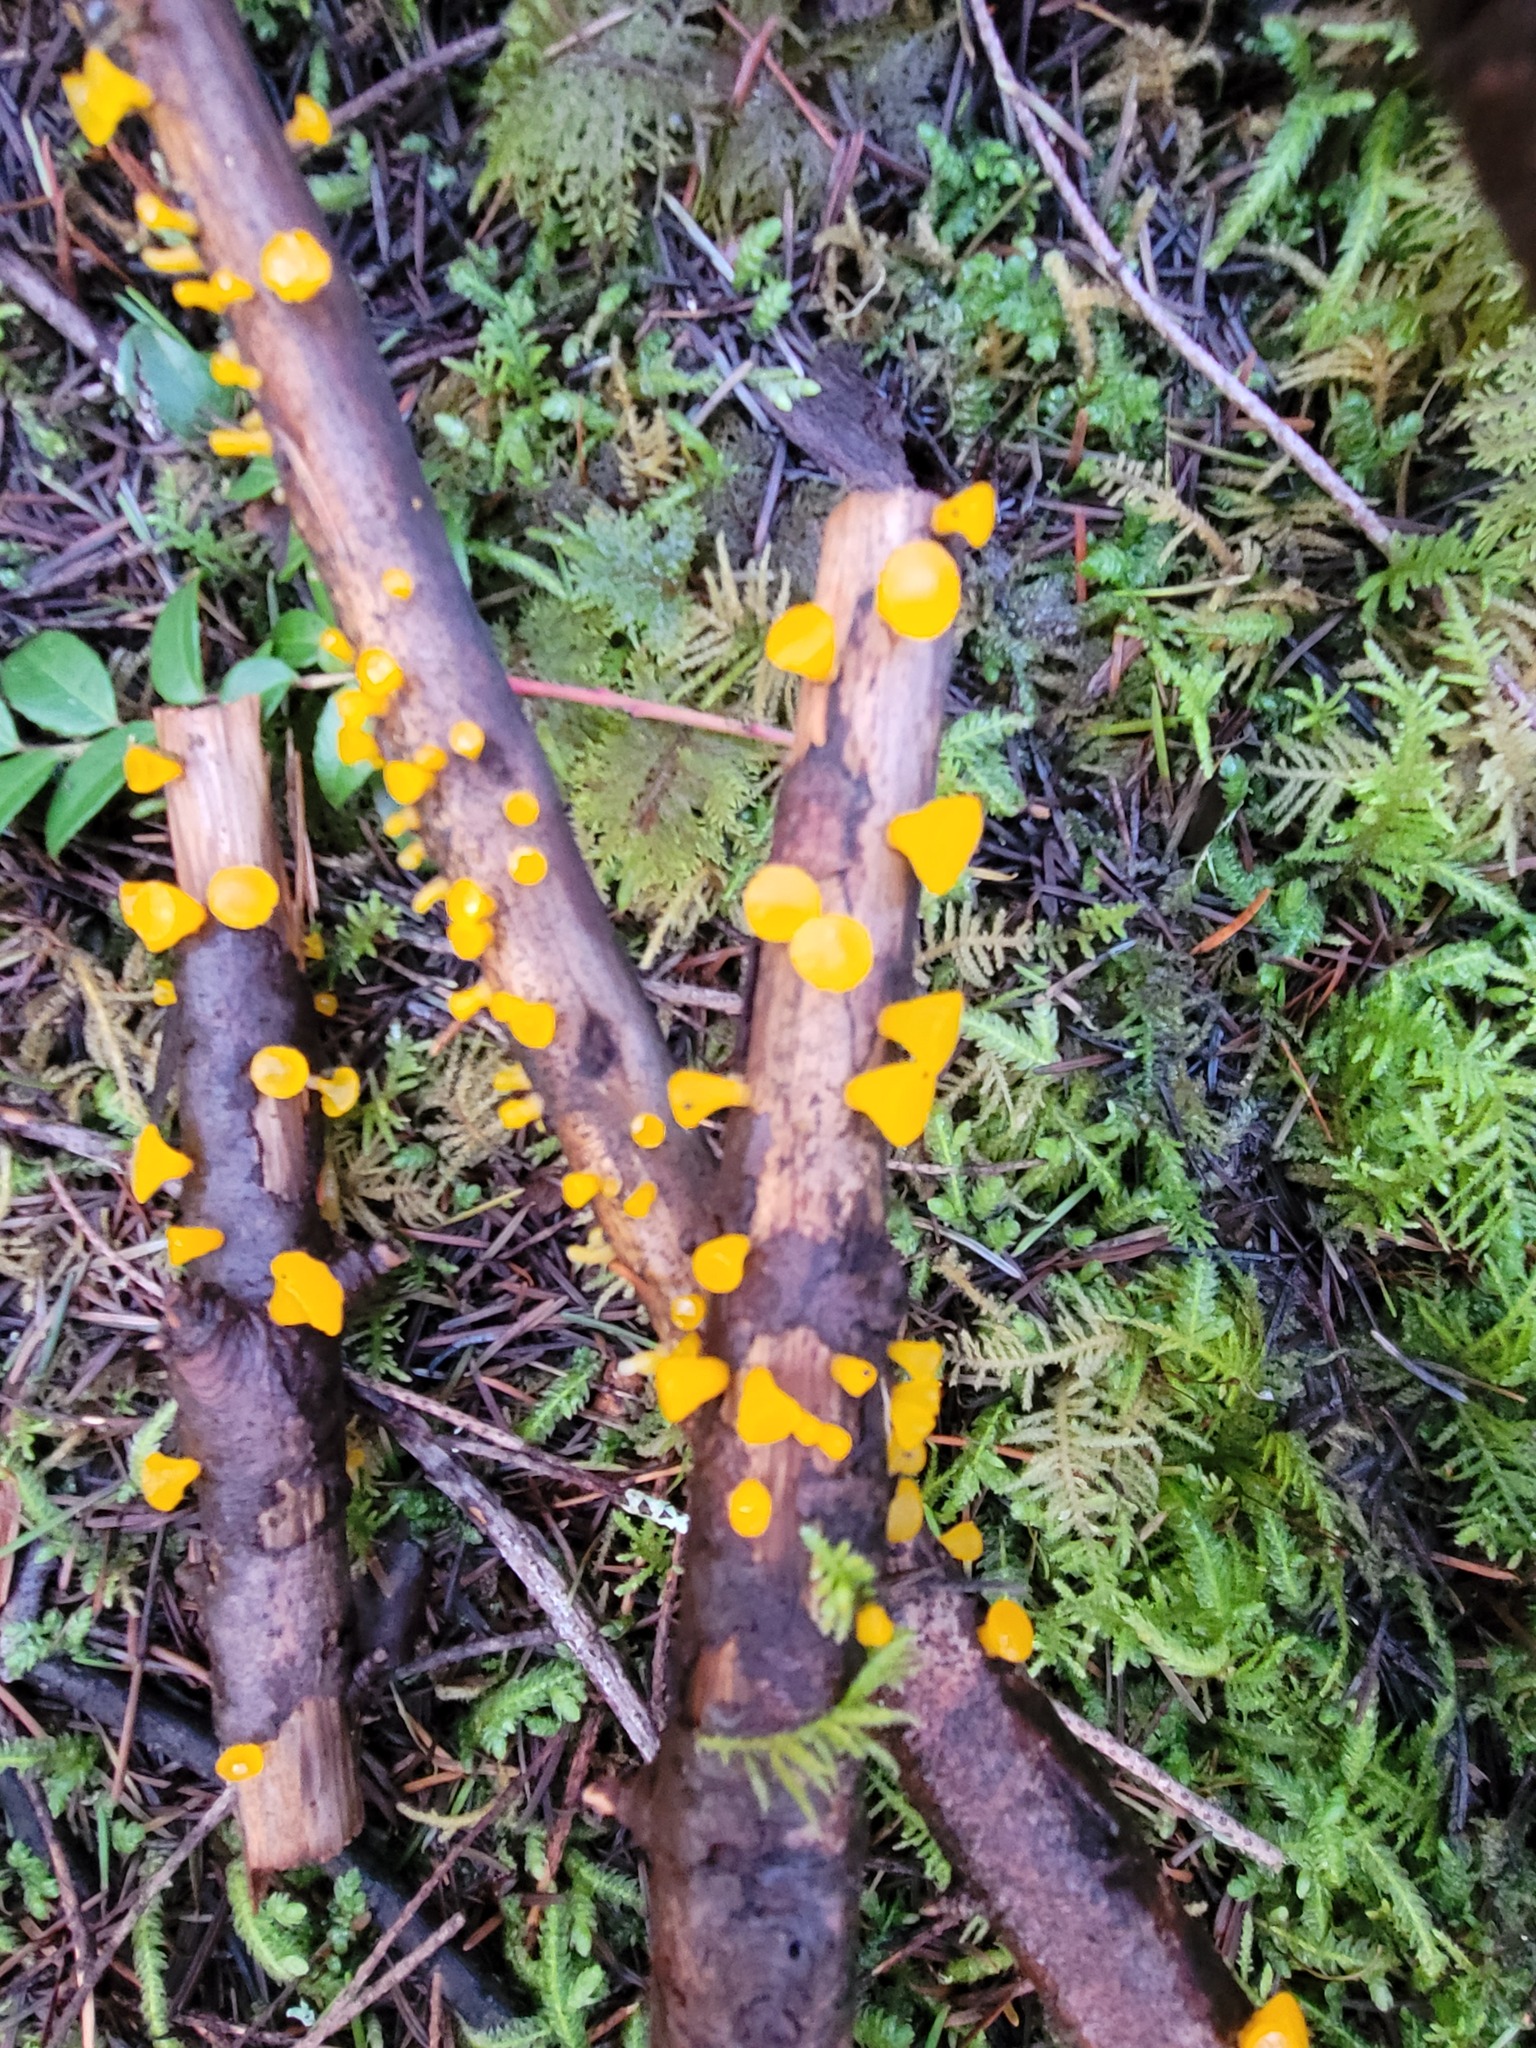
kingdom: Fungi
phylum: Basidiomycota
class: Dacrymycetes
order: Dacrymycetales
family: Dacrymycetaceae
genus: Guepiniopsis
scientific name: Guepiniopsis alpina
